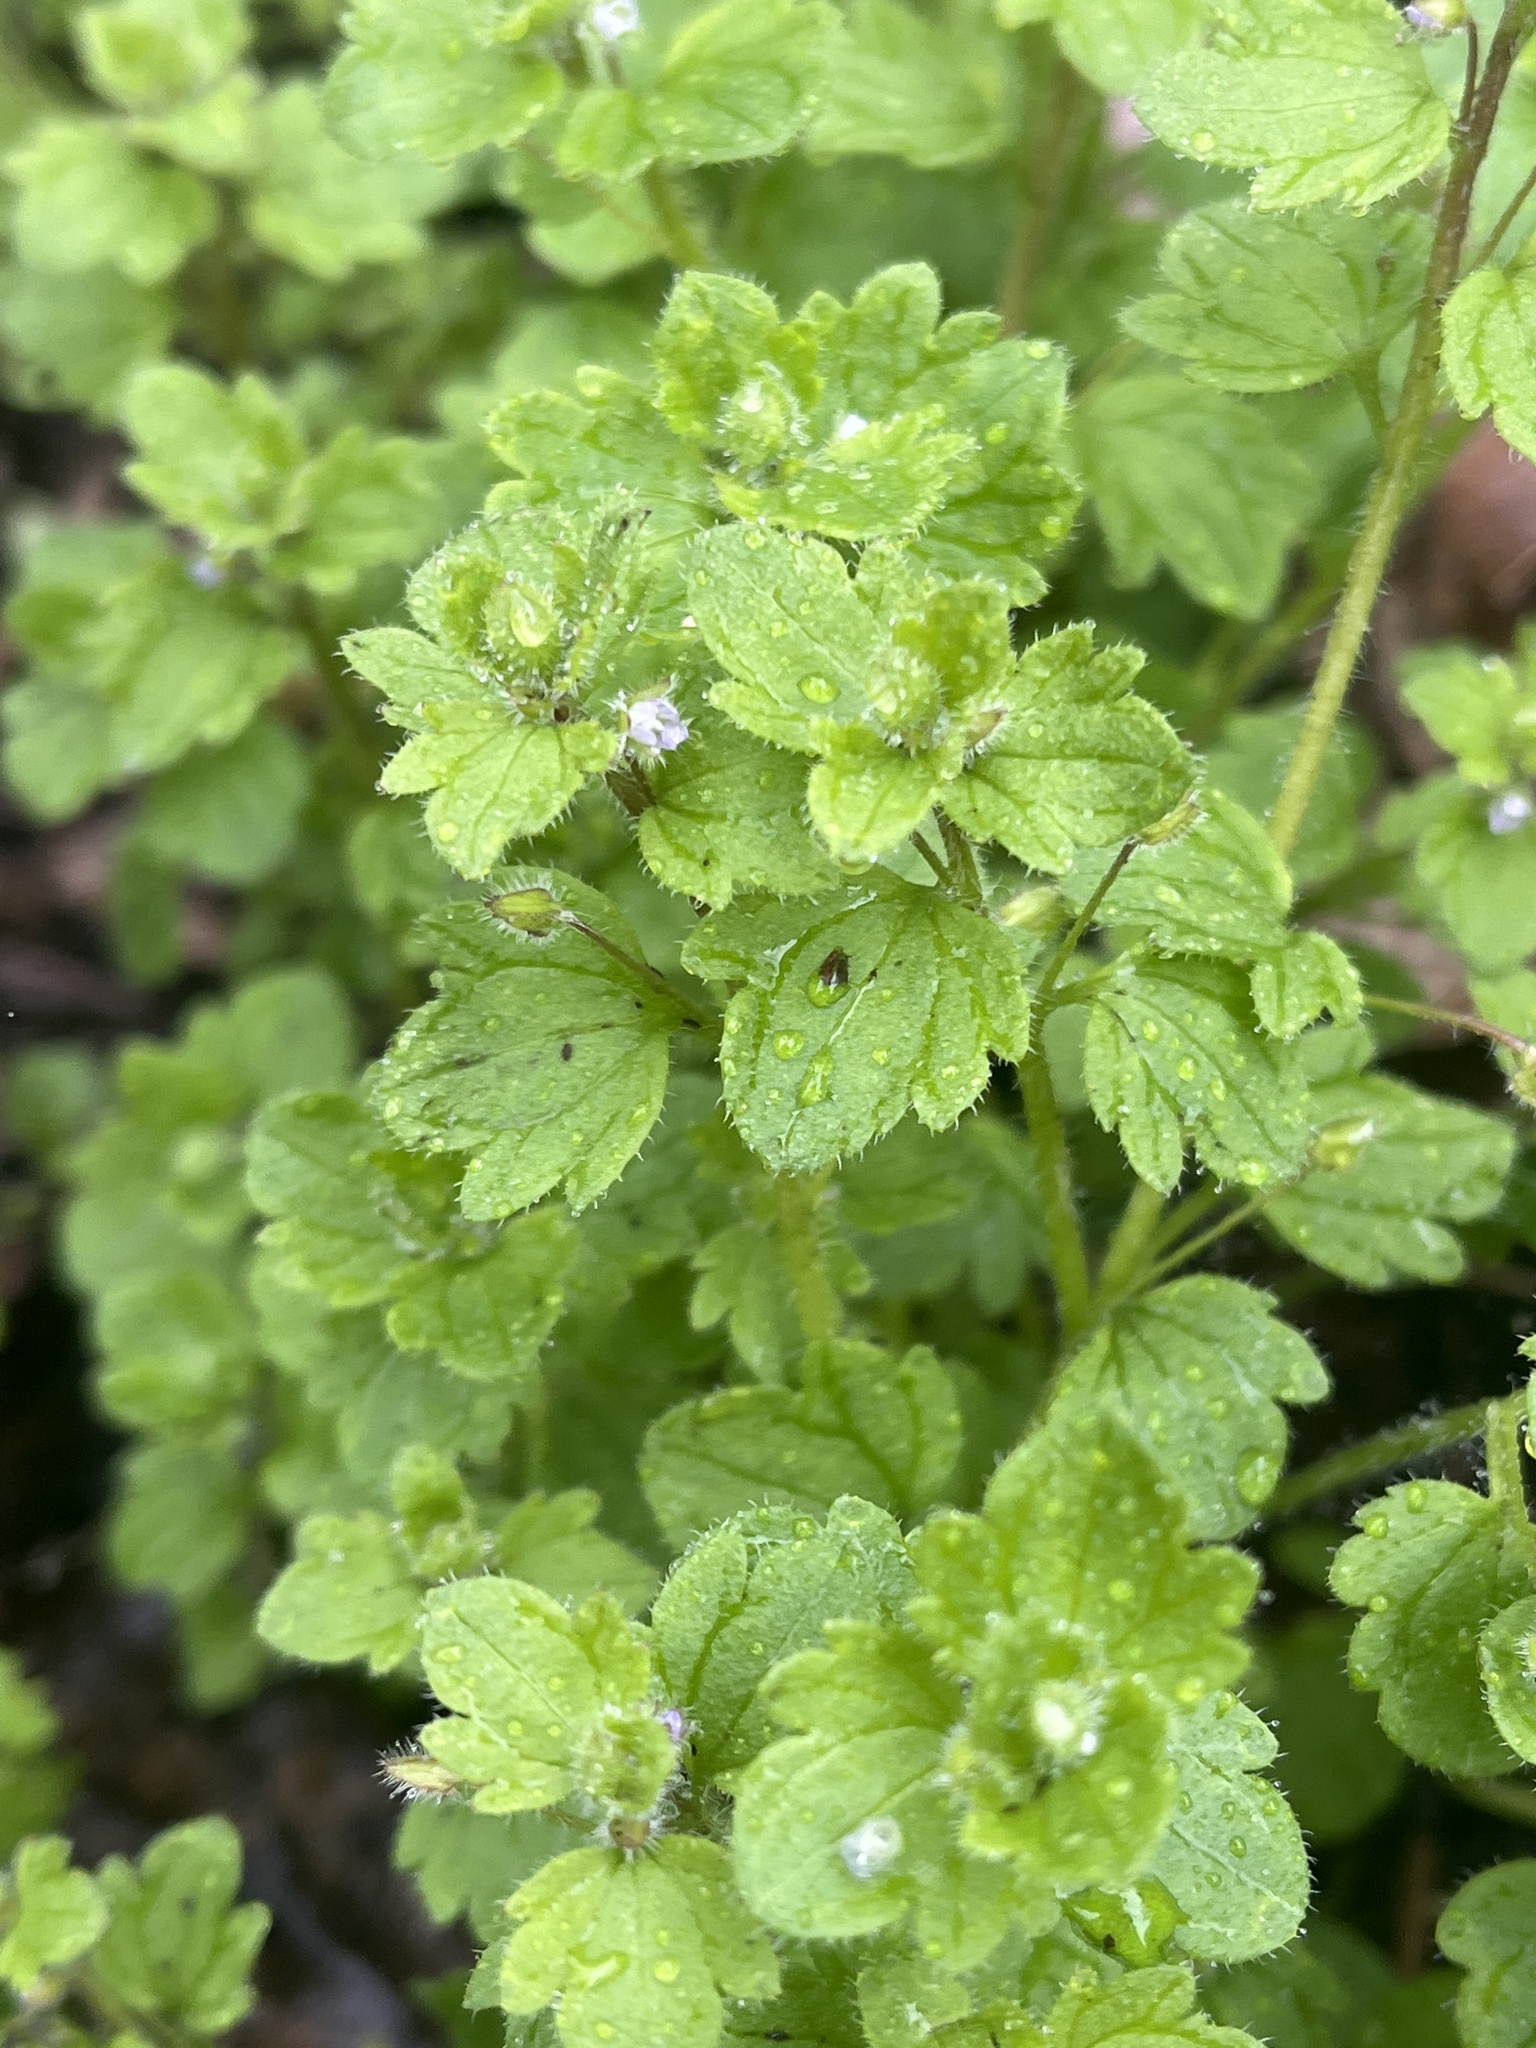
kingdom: Plantae
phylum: Tracheophyta
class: Magnoliopsida
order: Lamiales
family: Plantaginaceae
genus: Veronica
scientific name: Veronica sublobata
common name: False ivy-leaved speedwell
